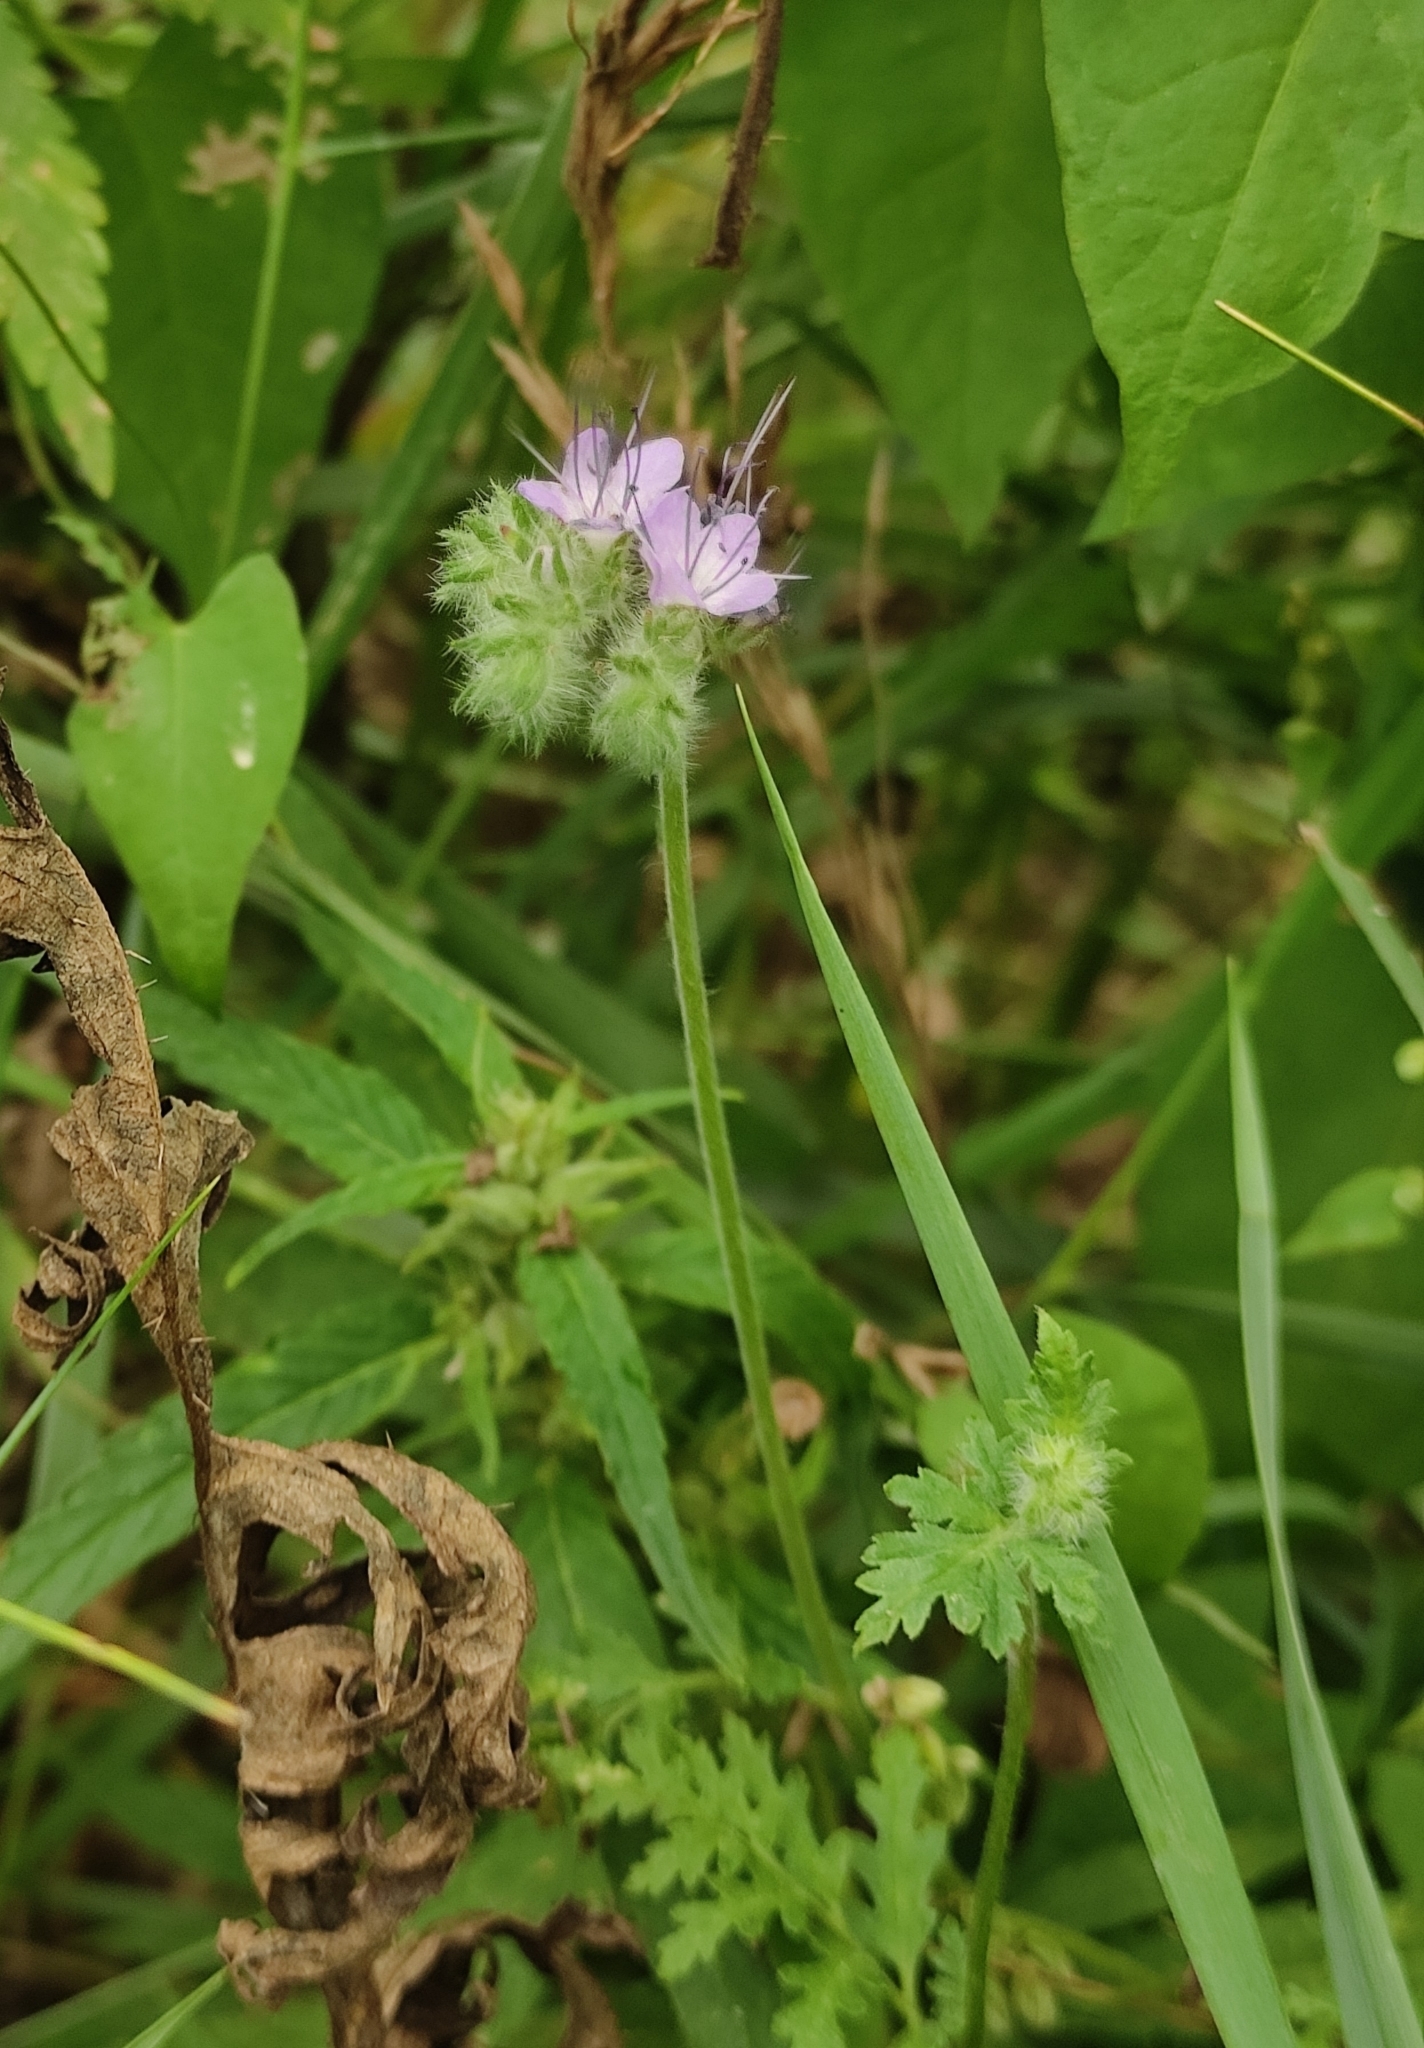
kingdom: Plantae
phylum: Tracheophyta
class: Magnoliopsida
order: Boraginales
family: Hydrophyllaceae
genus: Phacelia
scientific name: Phacelia tanacetifolia
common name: Phacelia
